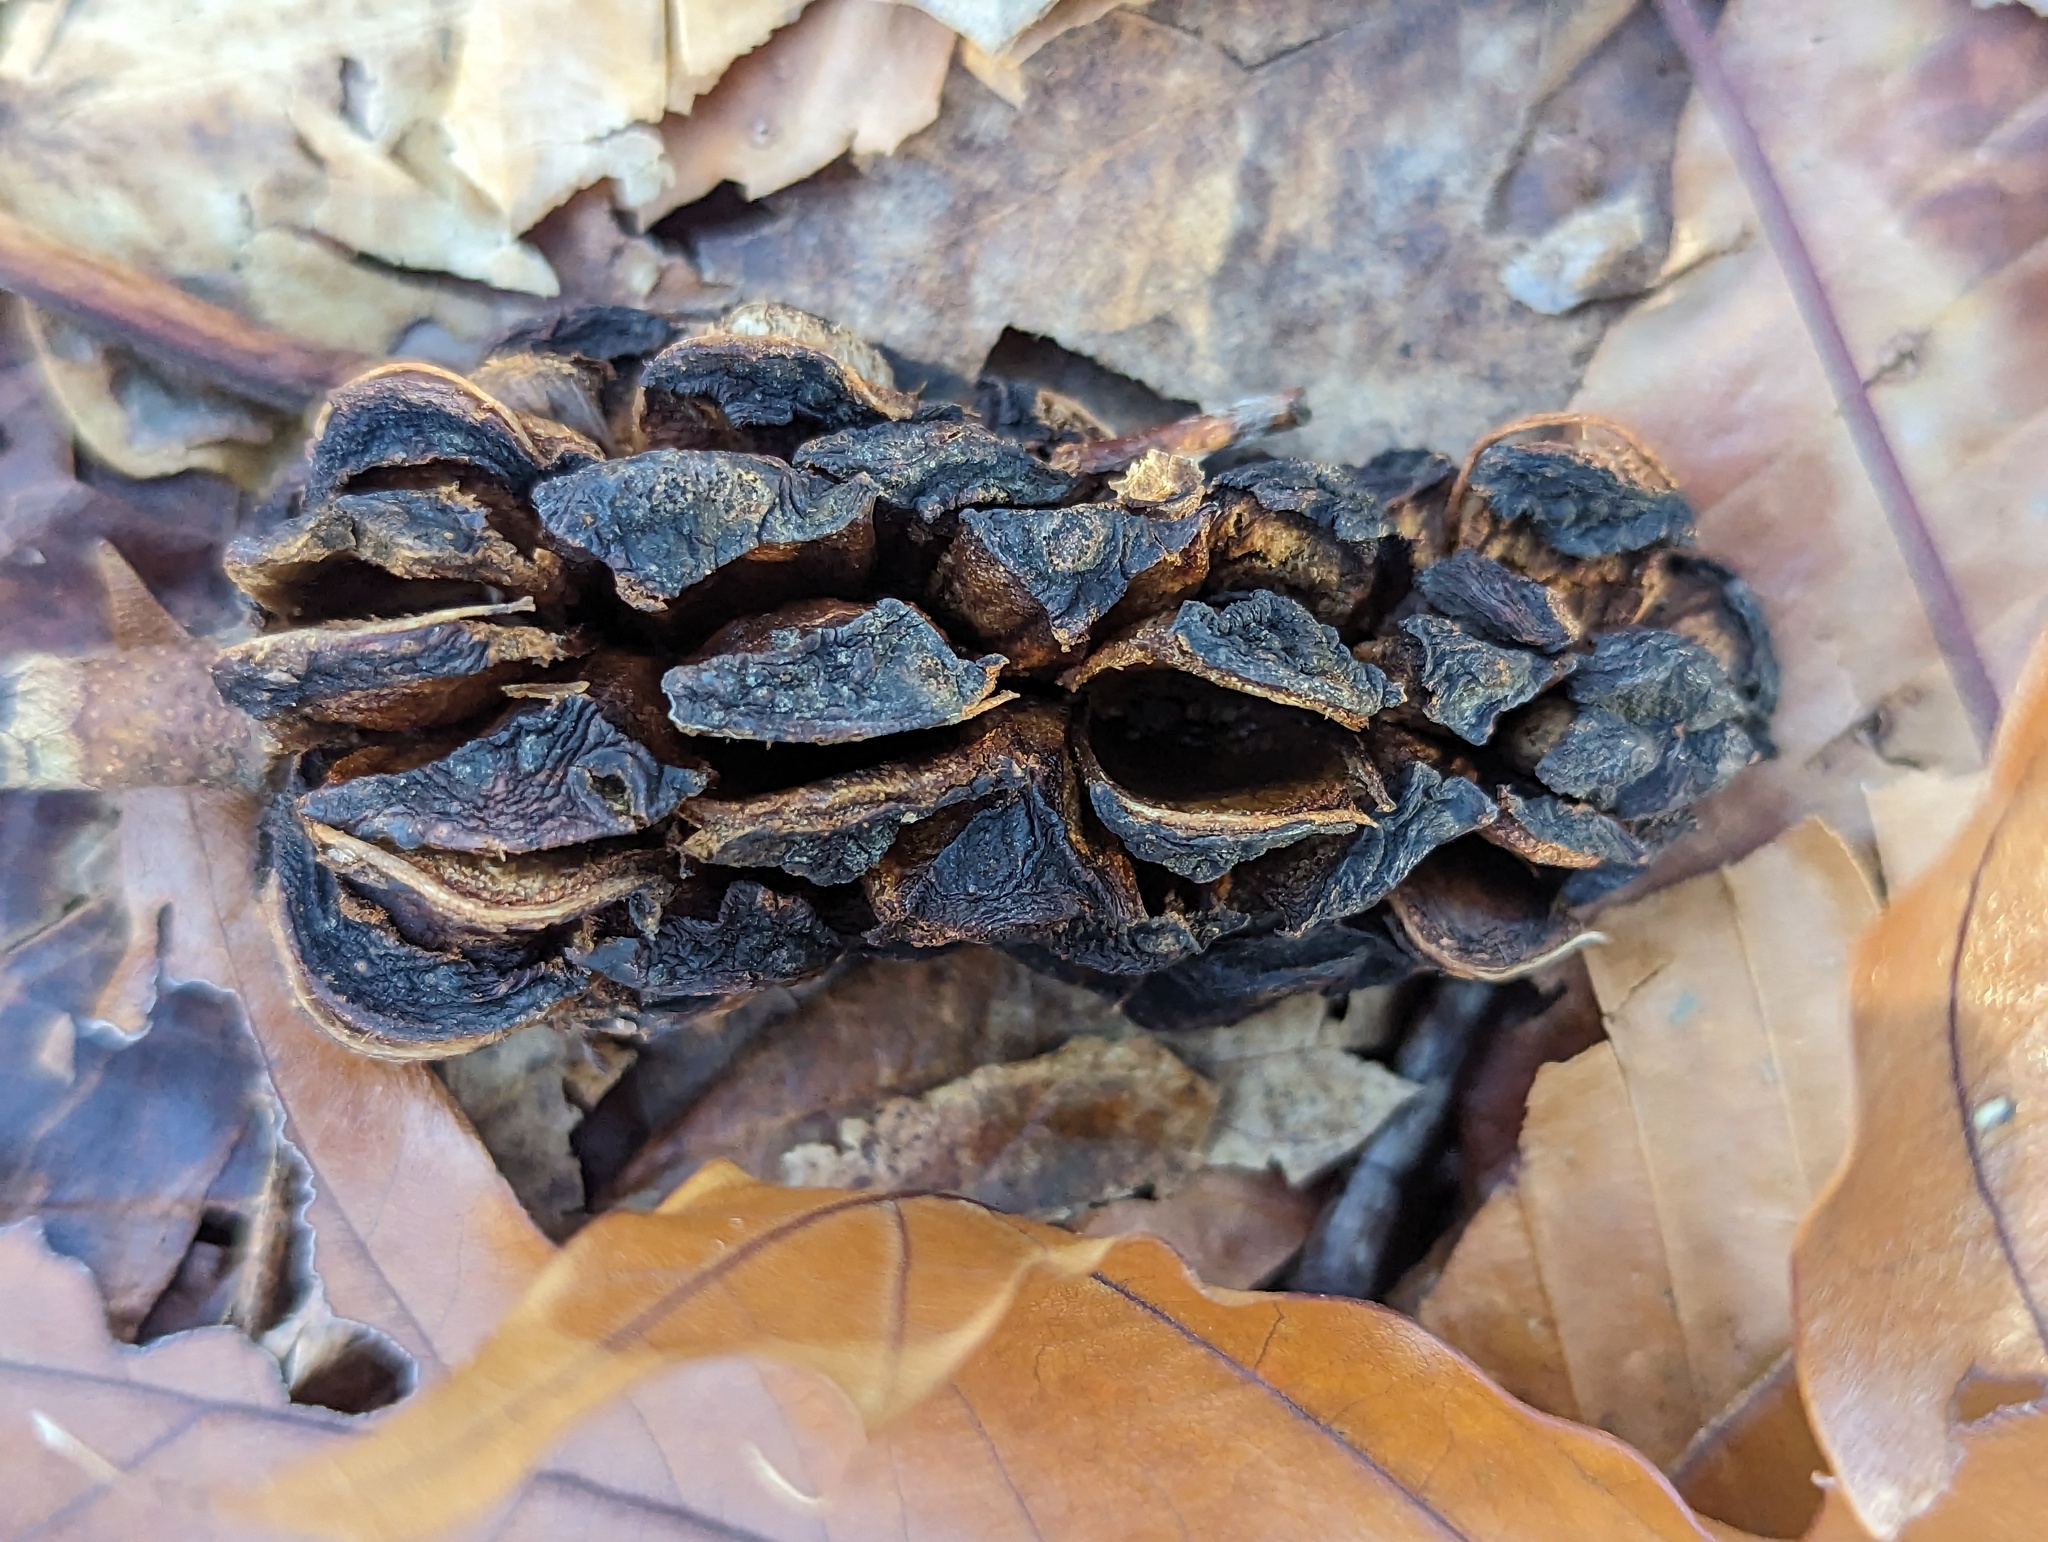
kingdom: Plantae
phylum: Tracheophyta
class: Magnoliopsida
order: Magnoliales
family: Magnoliaceae
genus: Magnolia
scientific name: Magnolia acuminata
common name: Cucumber magnolia
